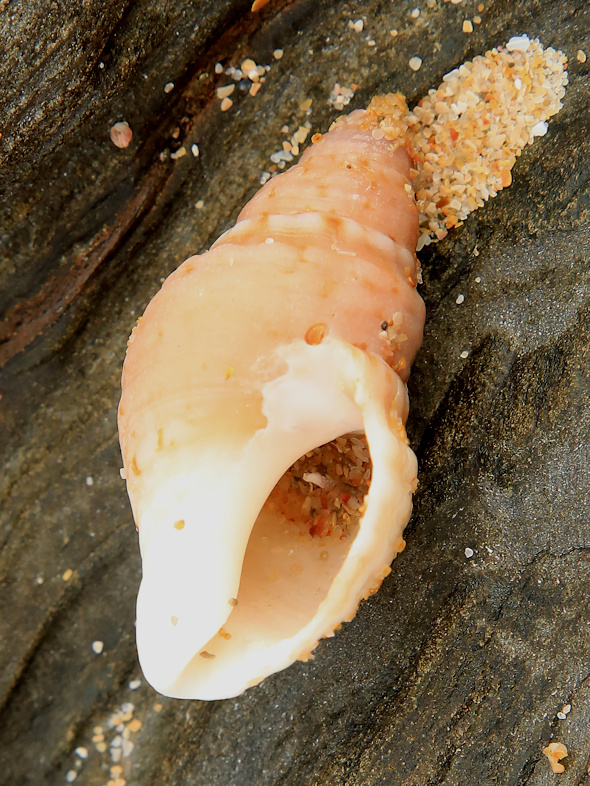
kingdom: Animalia
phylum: Mollusca
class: Gastropoda
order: Neogastropoda
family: Nassariidae
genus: Bullia
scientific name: Bullia annulata
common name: Annulated plough shell
